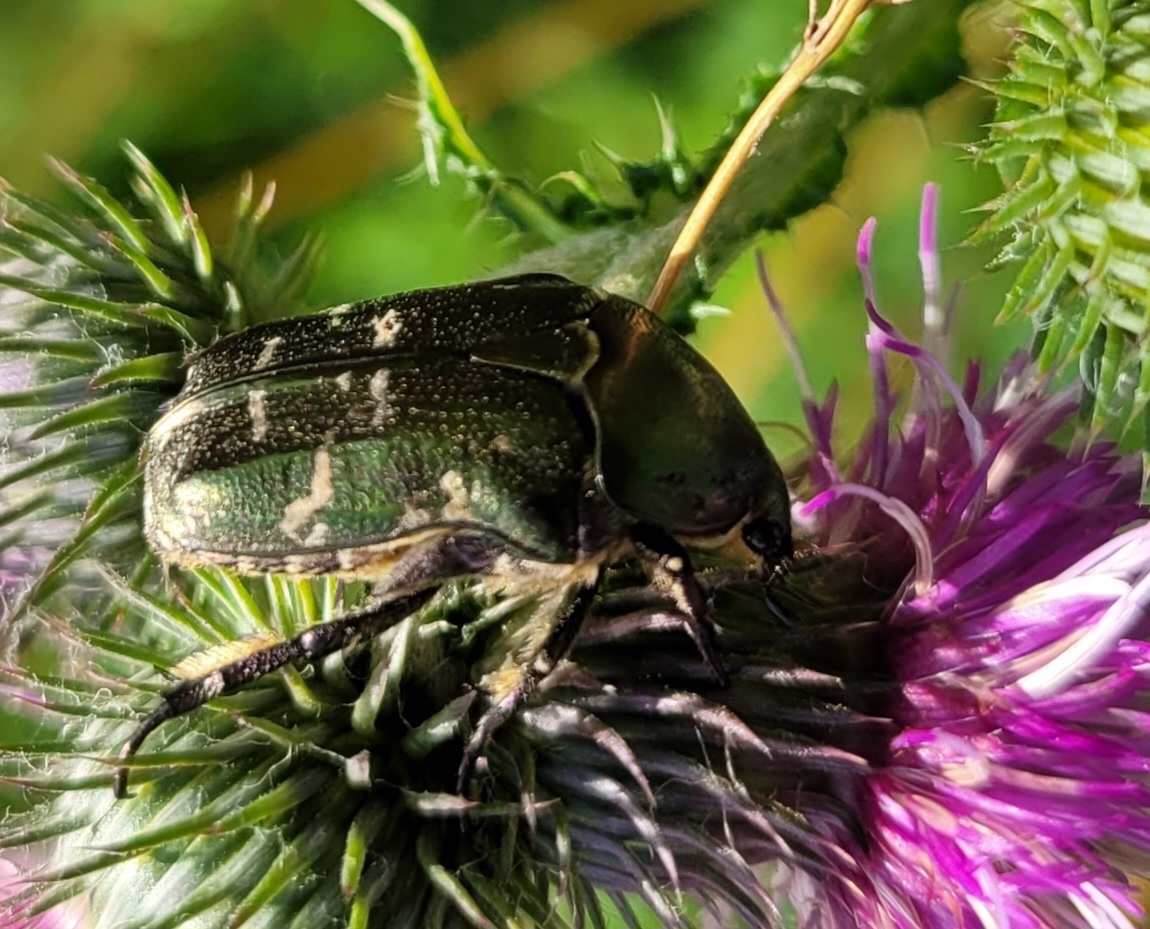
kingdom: Animalia
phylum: Arthropoda
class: Insecta
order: Coleoptera
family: Scarabaeidae
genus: Protaetia
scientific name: Protaetia cuprea
